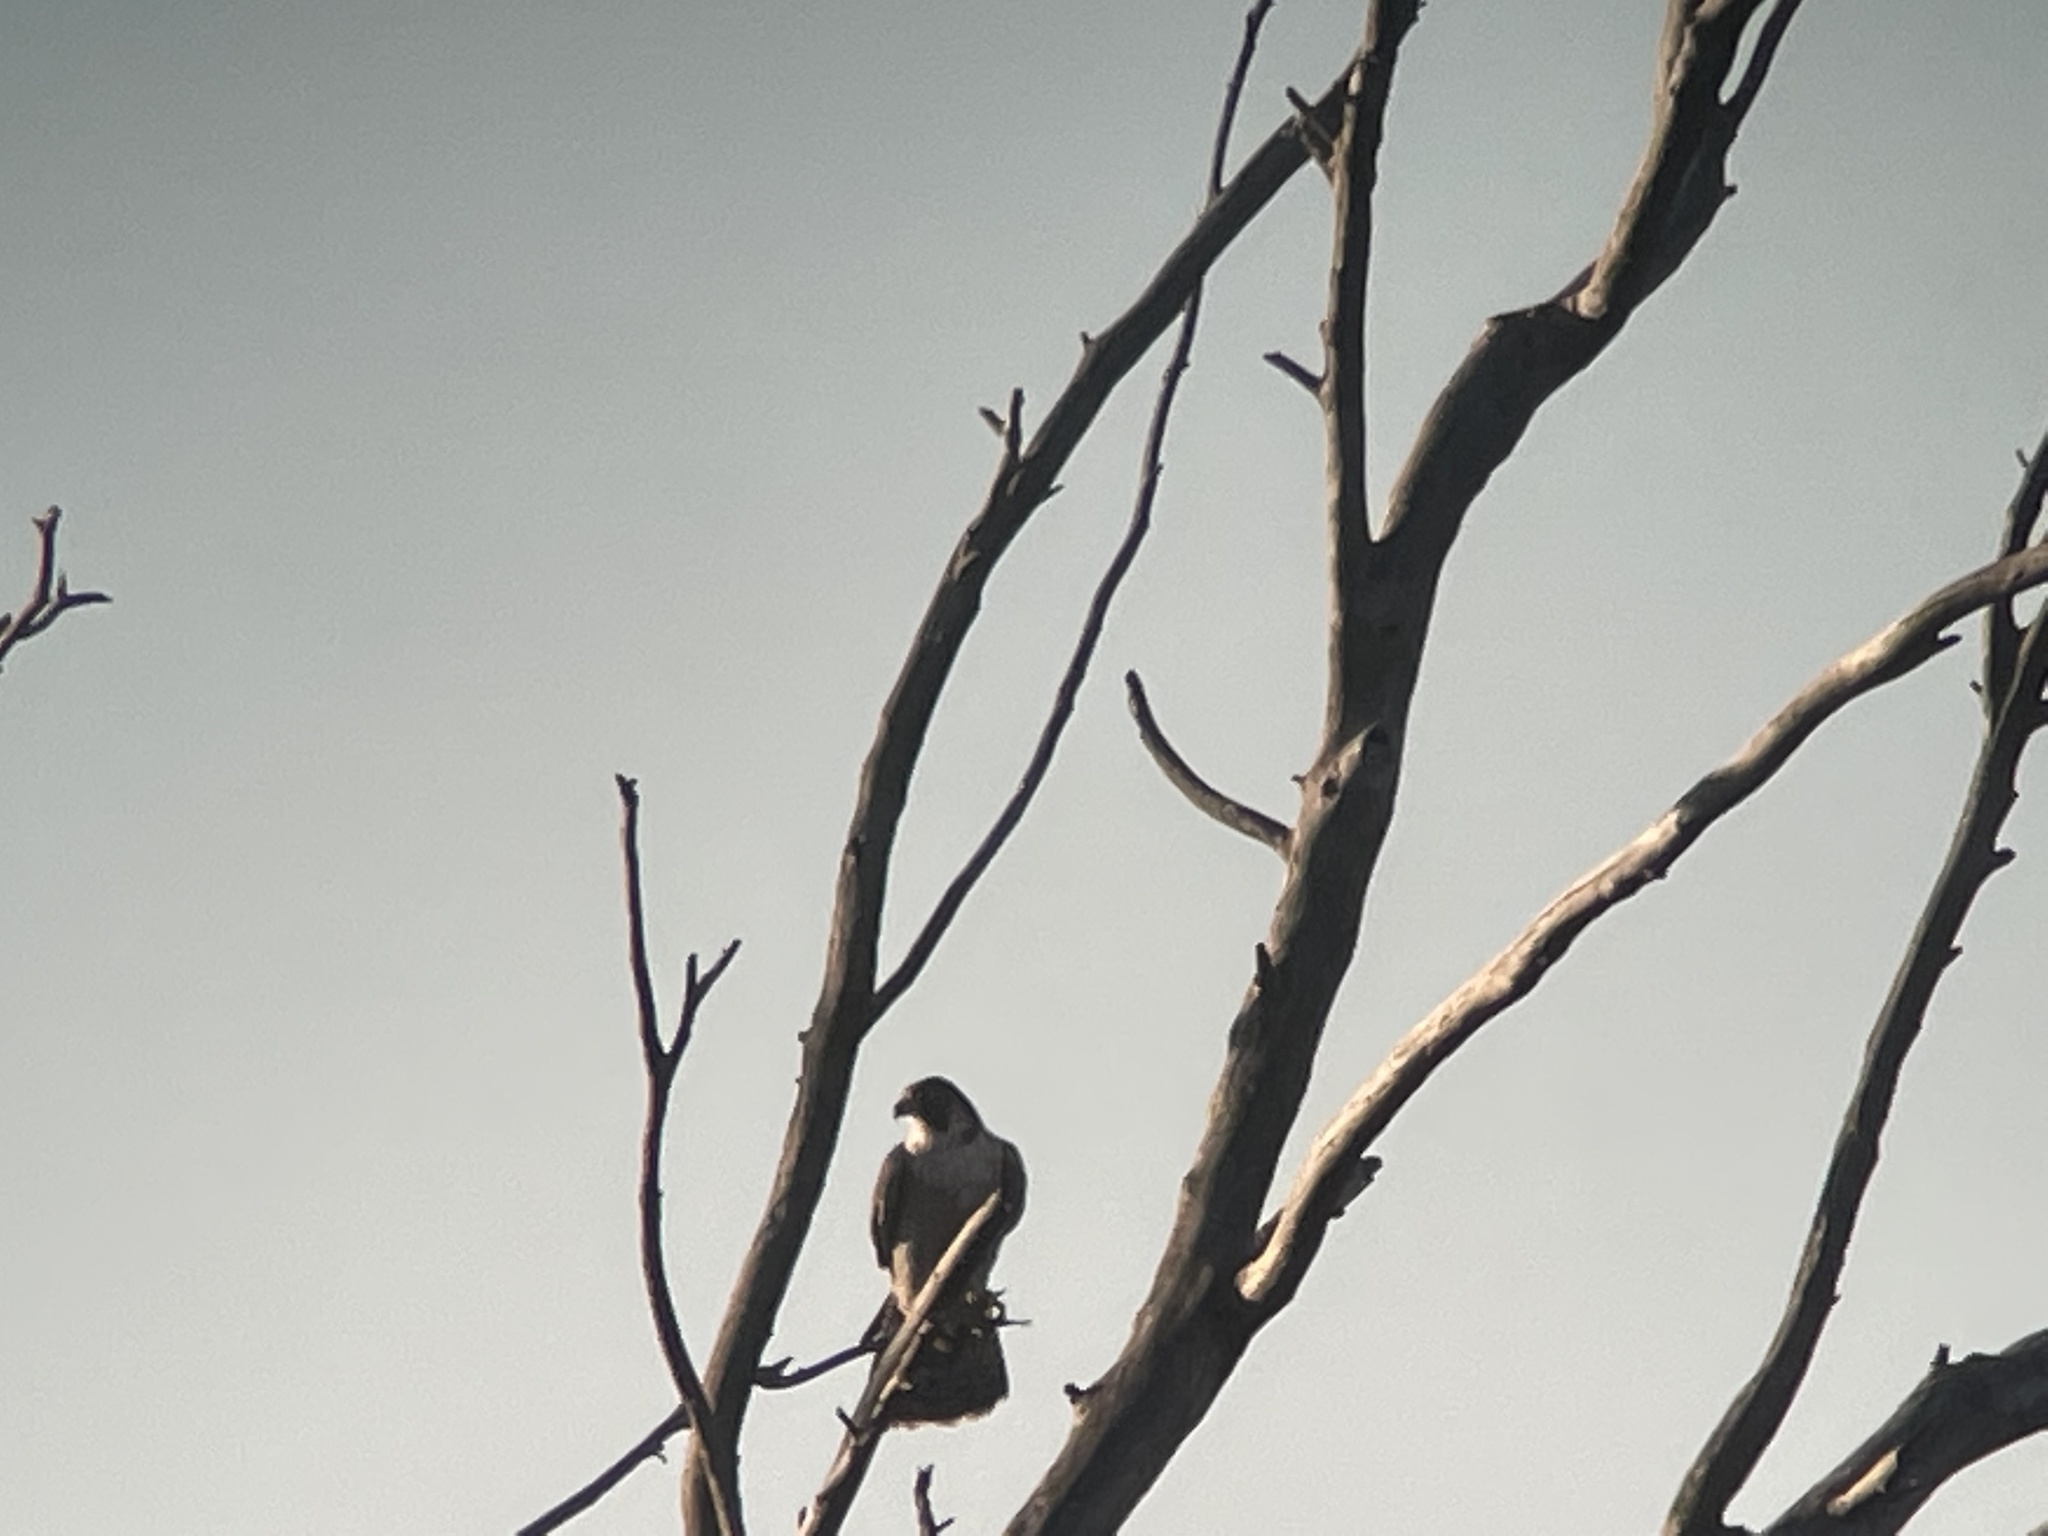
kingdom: Animalia
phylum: Chordata
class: Aves
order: Falconiformes
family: Falconidae
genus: Falco
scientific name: Falco peregrinus
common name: Peregrine falcon
